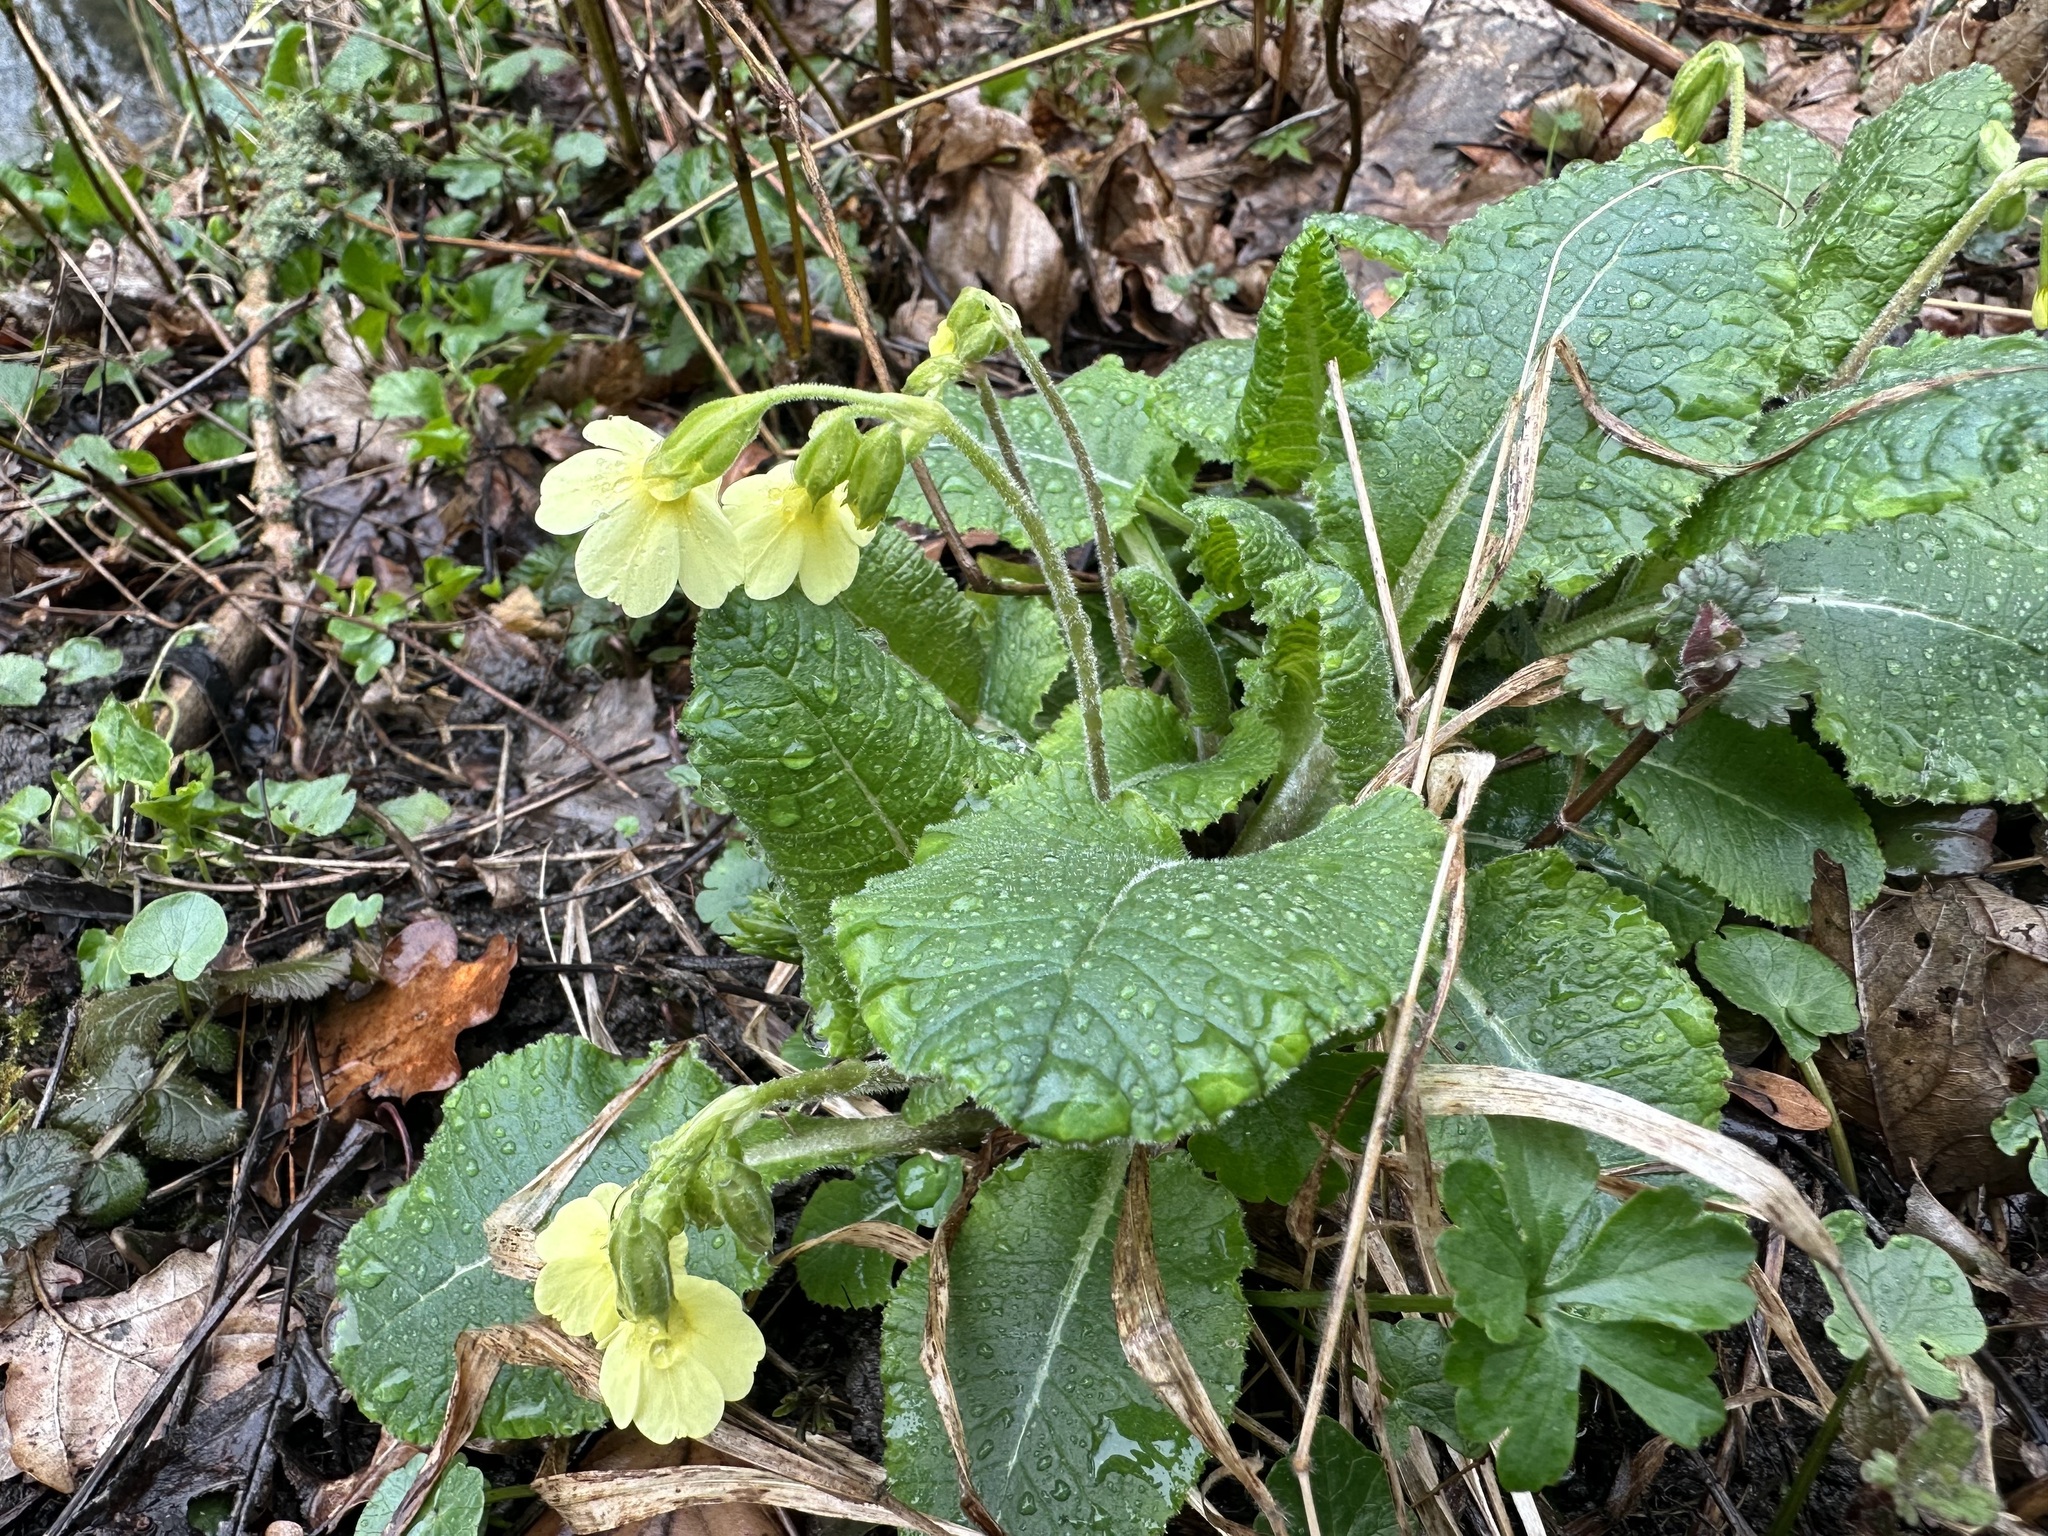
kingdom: Plantae
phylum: Tracheophyta
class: Magnoliopsida
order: Ericales
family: Primulaceae
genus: Primula
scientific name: Primula elatior
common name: Oxlip
